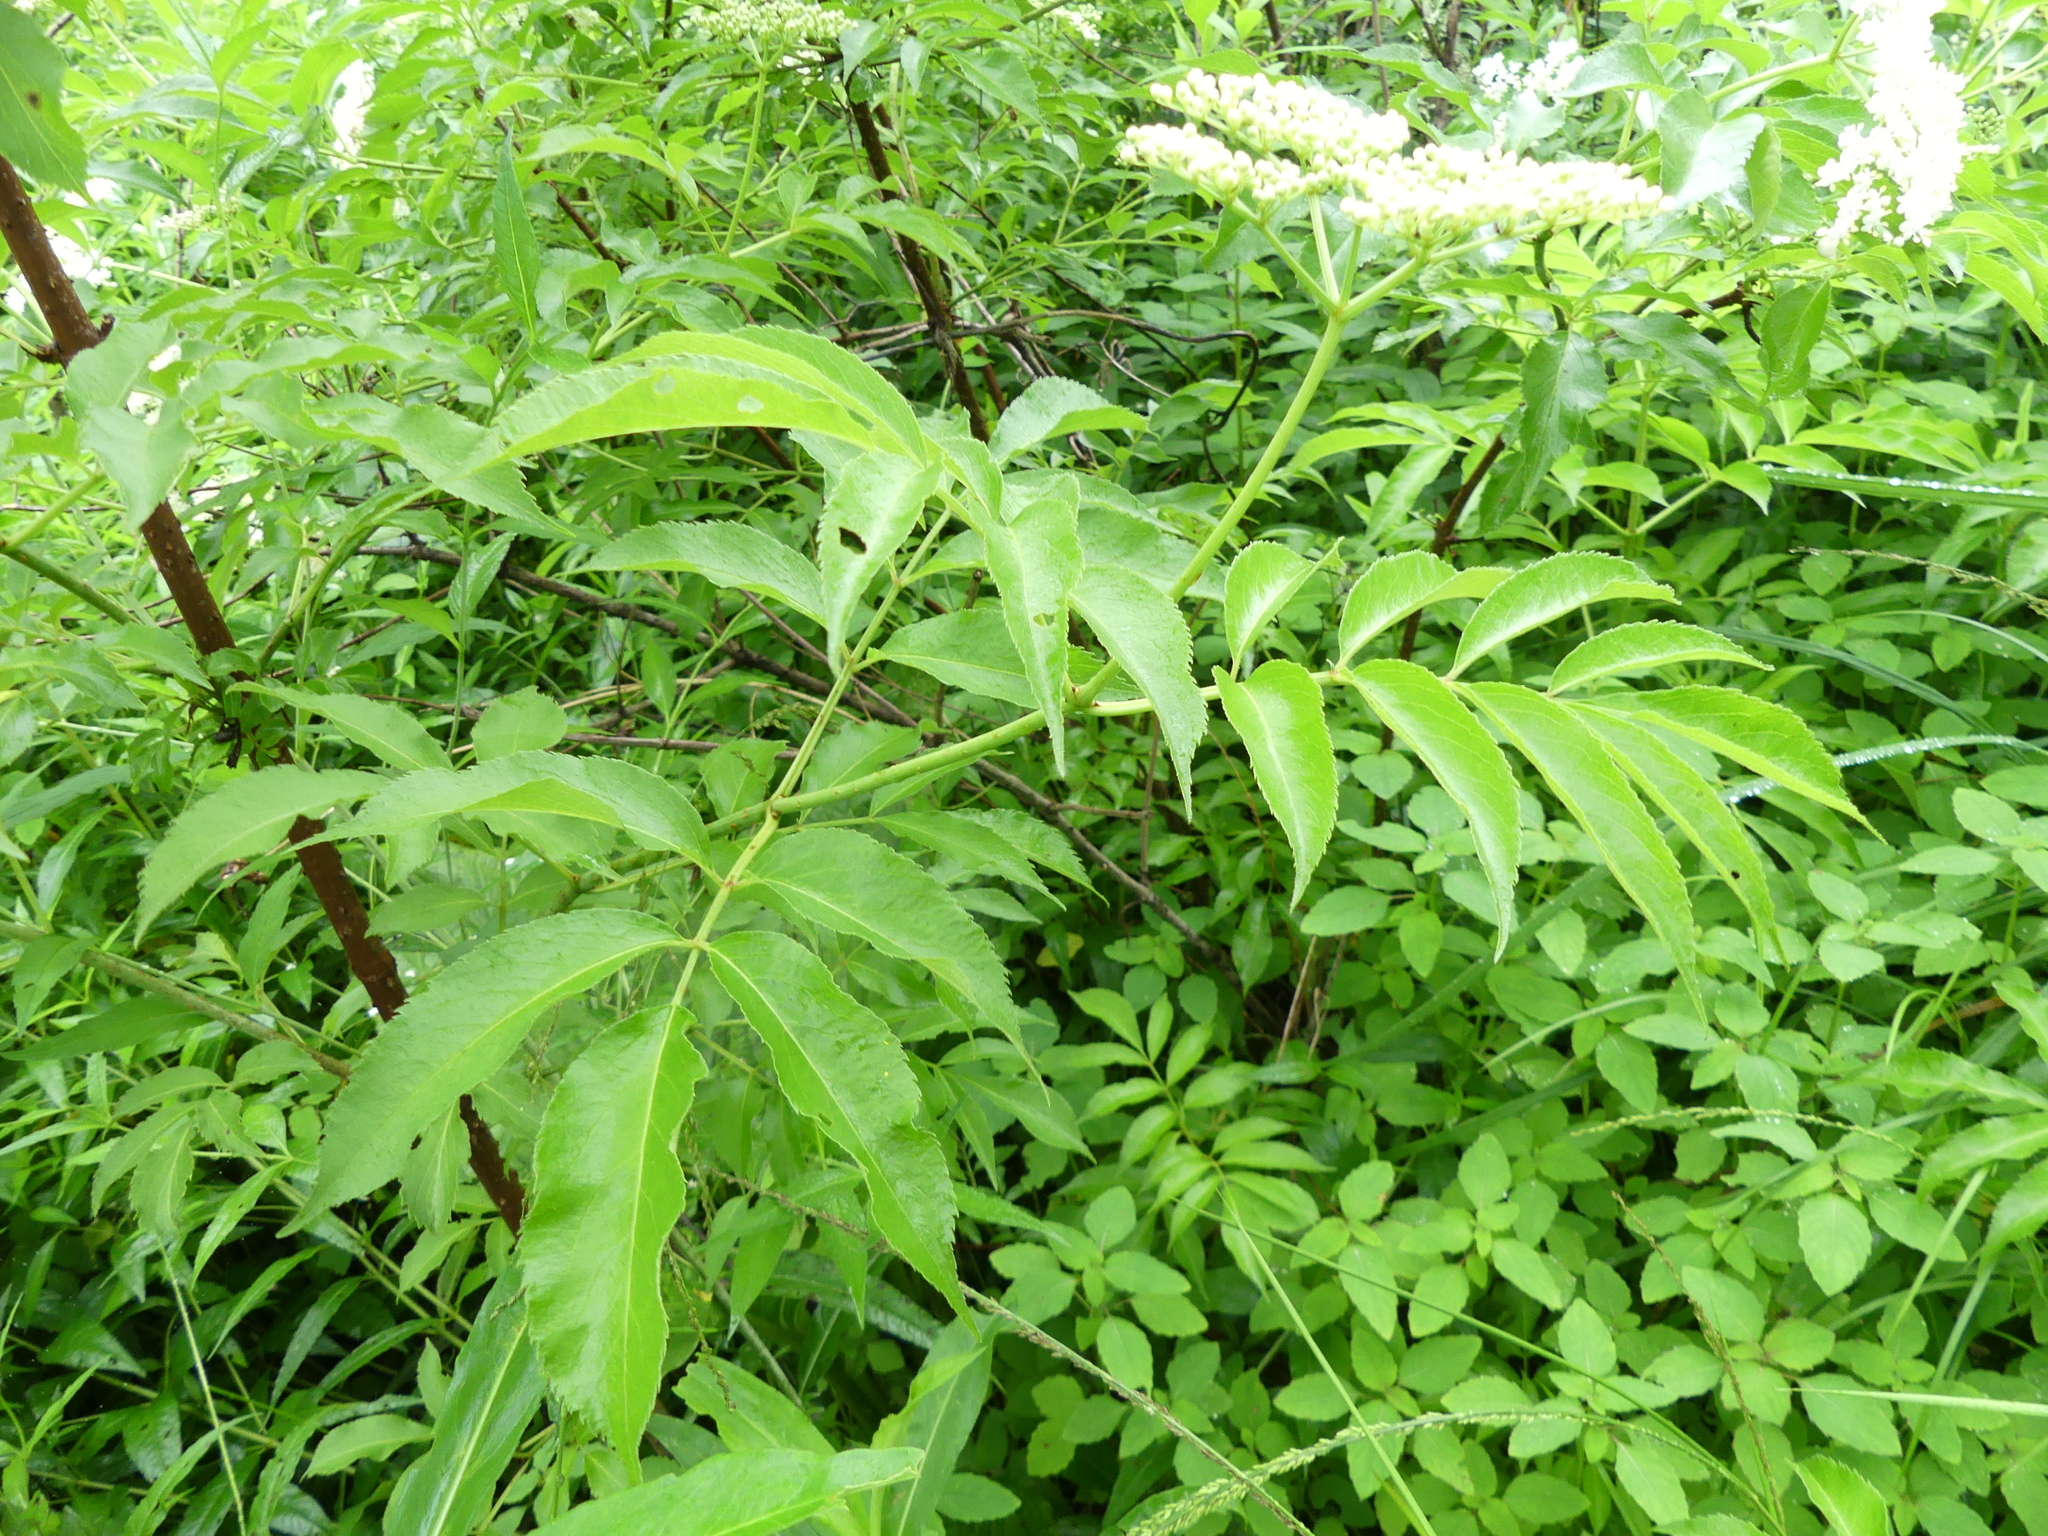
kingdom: Plantae
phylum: Tracheophyta
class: Magnoliopsida
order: Dipsacales
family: Viburnaceae
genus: Sambucus
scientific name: Sambucus canadensis
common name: American elder
